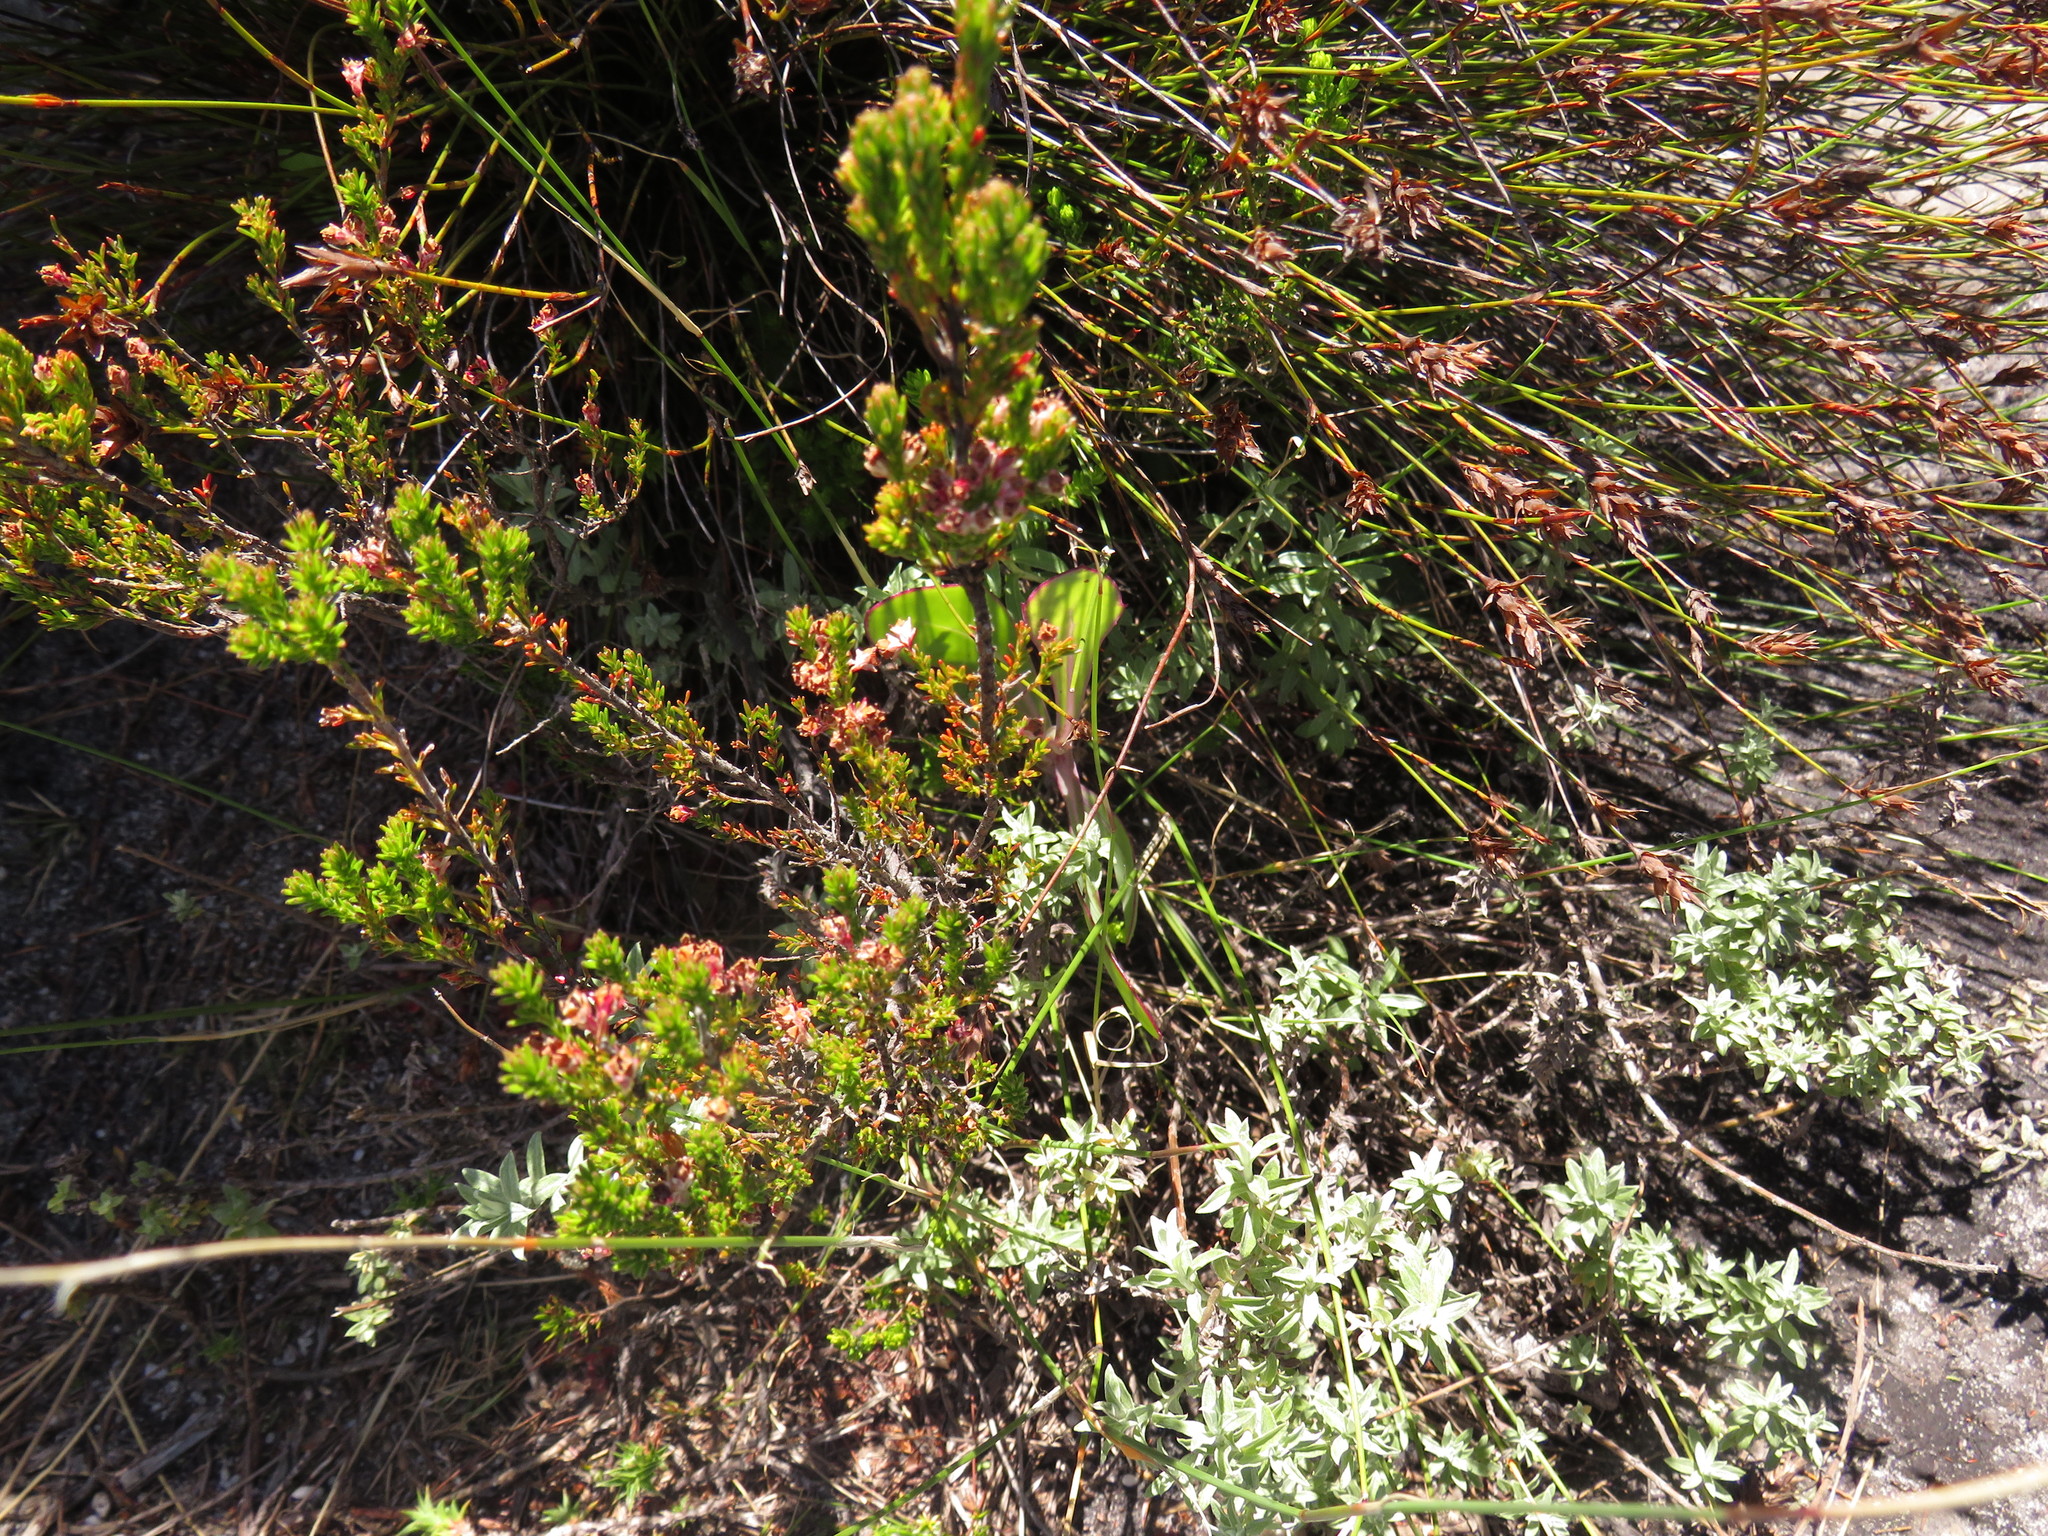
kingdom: Plantae
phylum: Tracheophyta
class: Magnoliopsida
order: Ericales
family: Ericaceae
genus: Erica
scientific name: Erica diosmifolia
